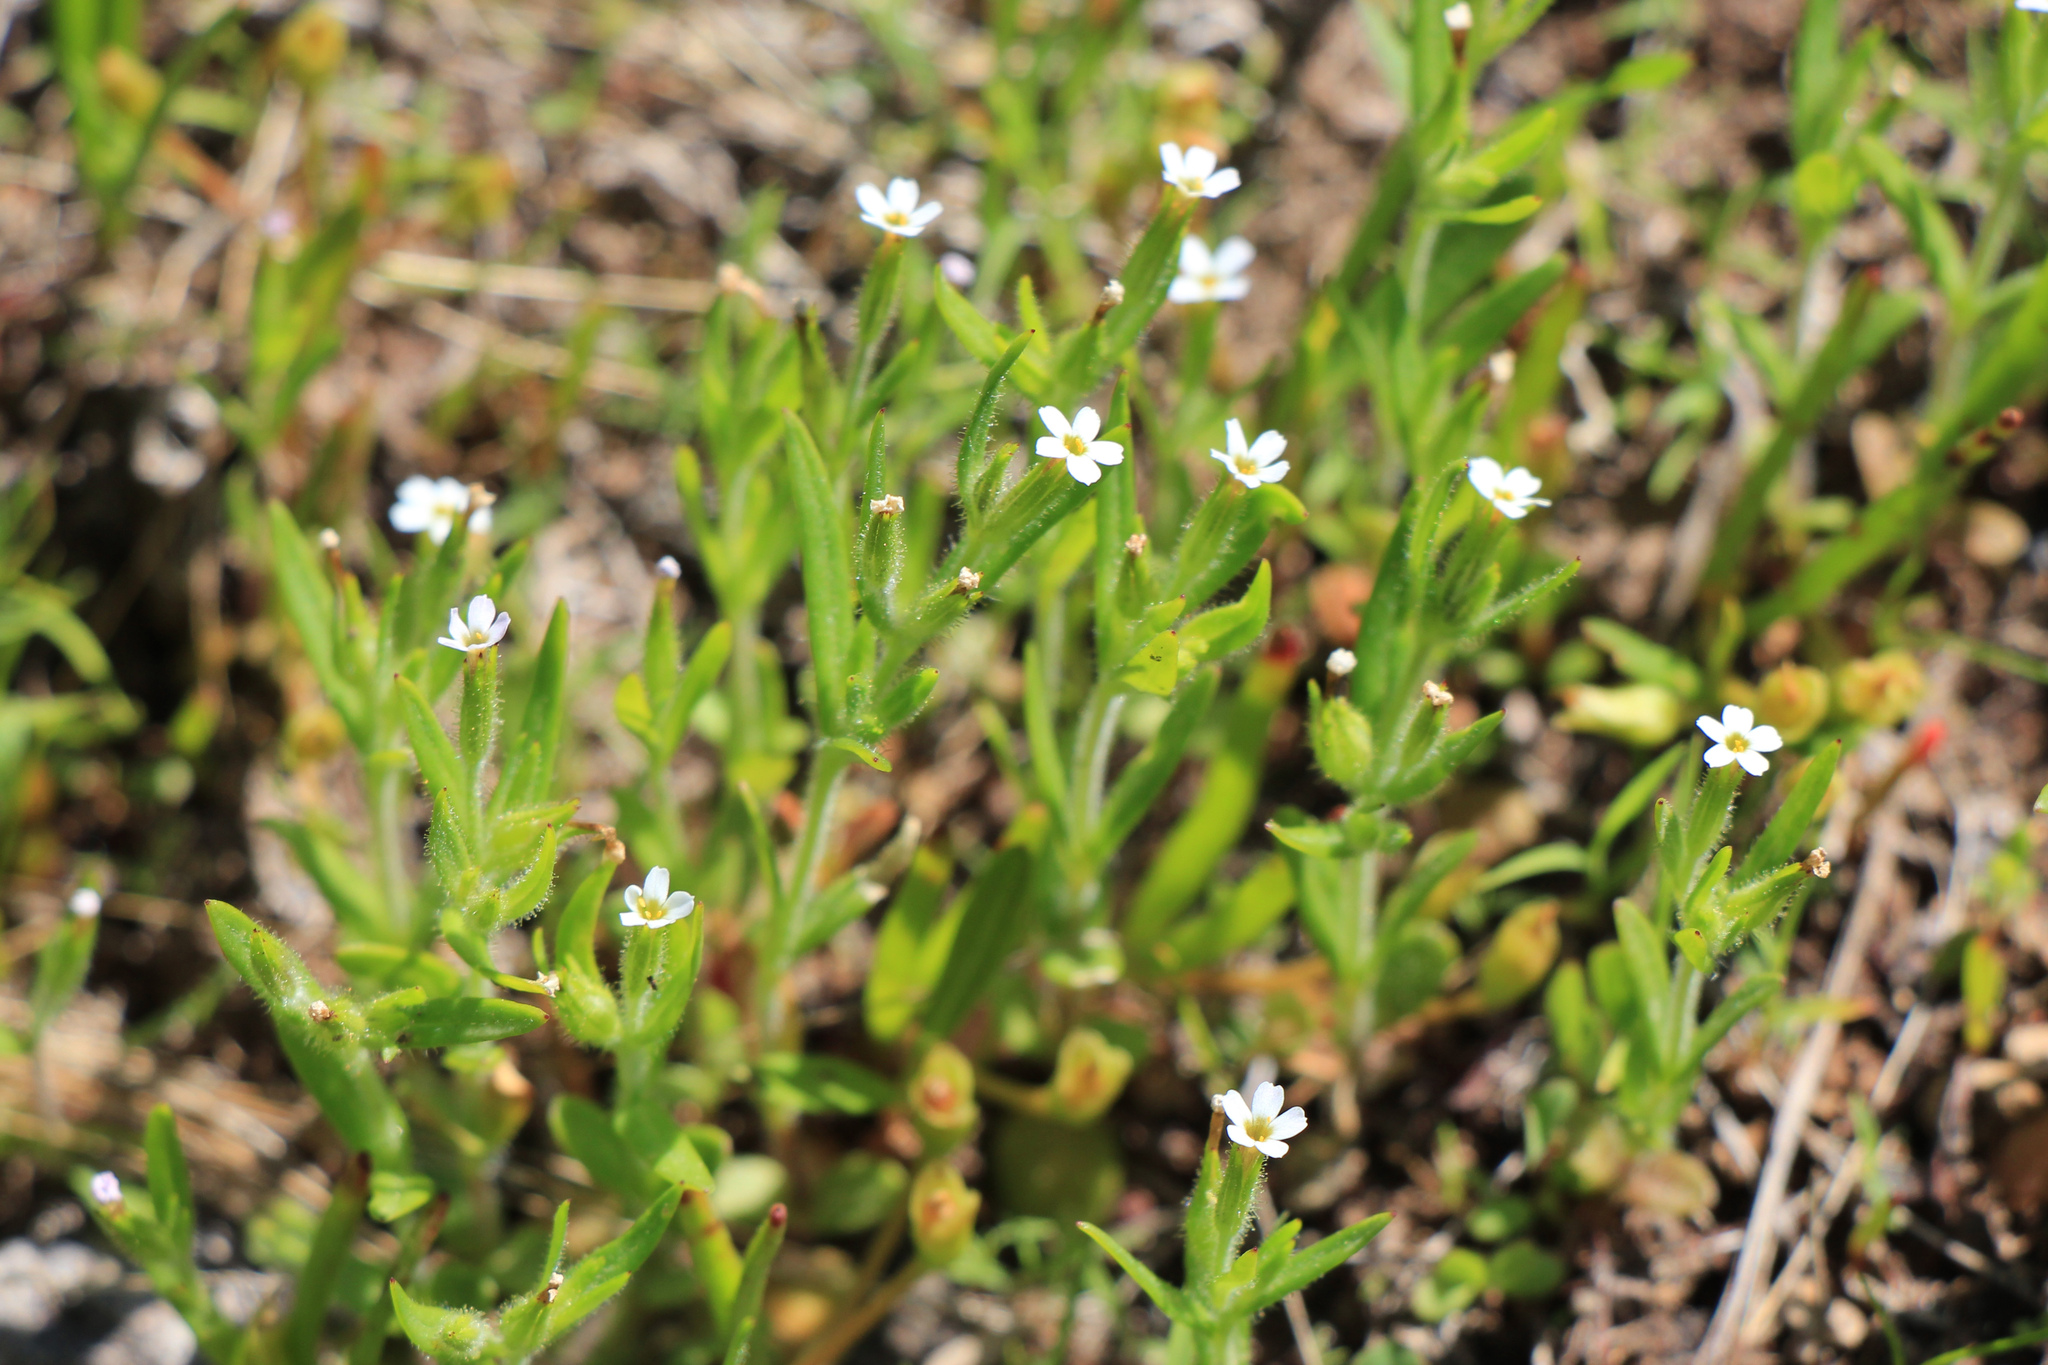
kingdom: Plantae
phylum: Tracheophyta
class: Magnoliopsida
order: Ericales
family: Polemoniaceae
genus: Phlox
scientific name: Phlox gracilis
